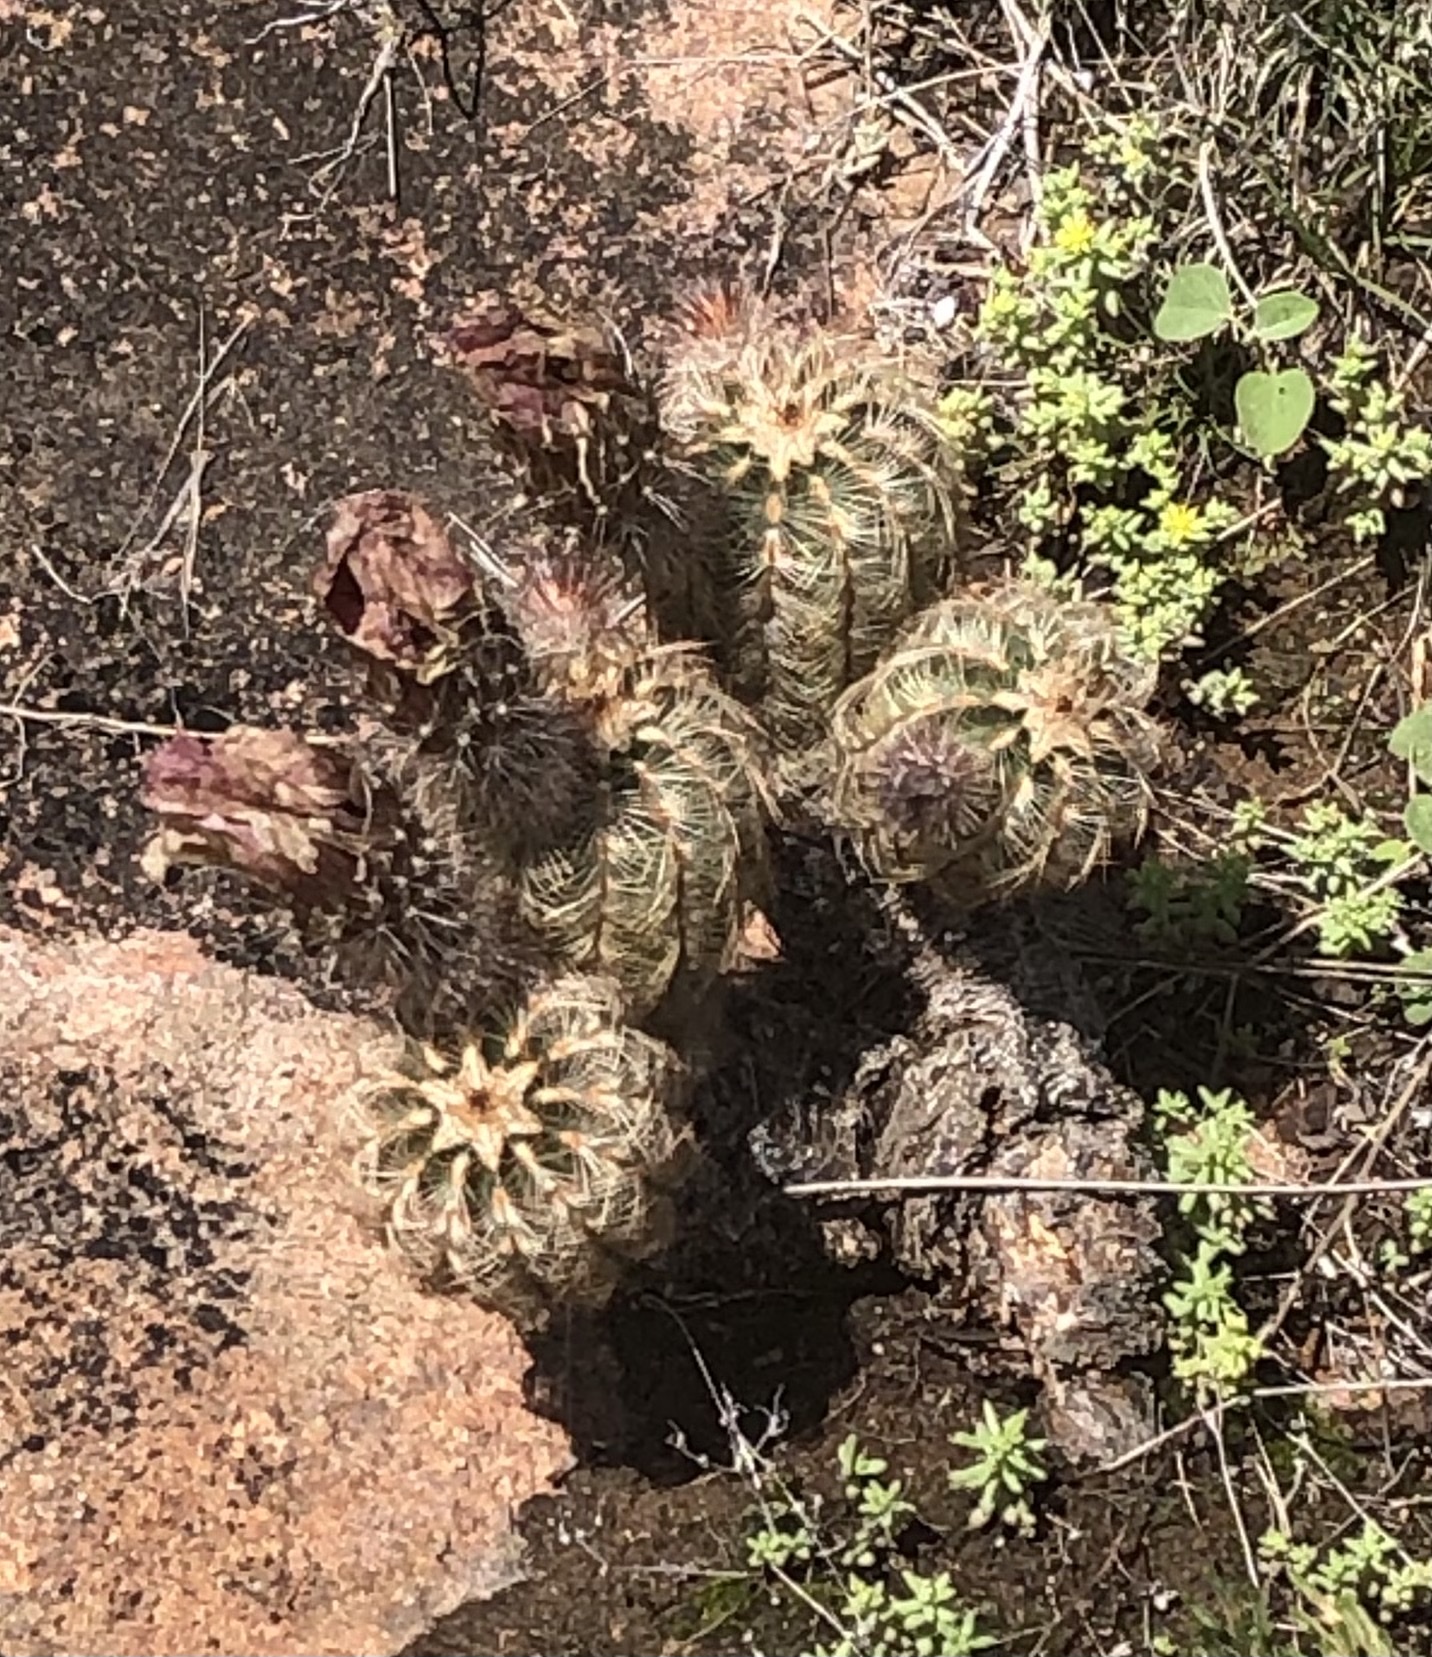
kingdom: Plantae
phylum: Tracheophyta
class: Magnoliopsida
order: Caryophyllales
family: Cactaceae
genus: Echinocereus
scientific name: Echinocereus reichenbachii
